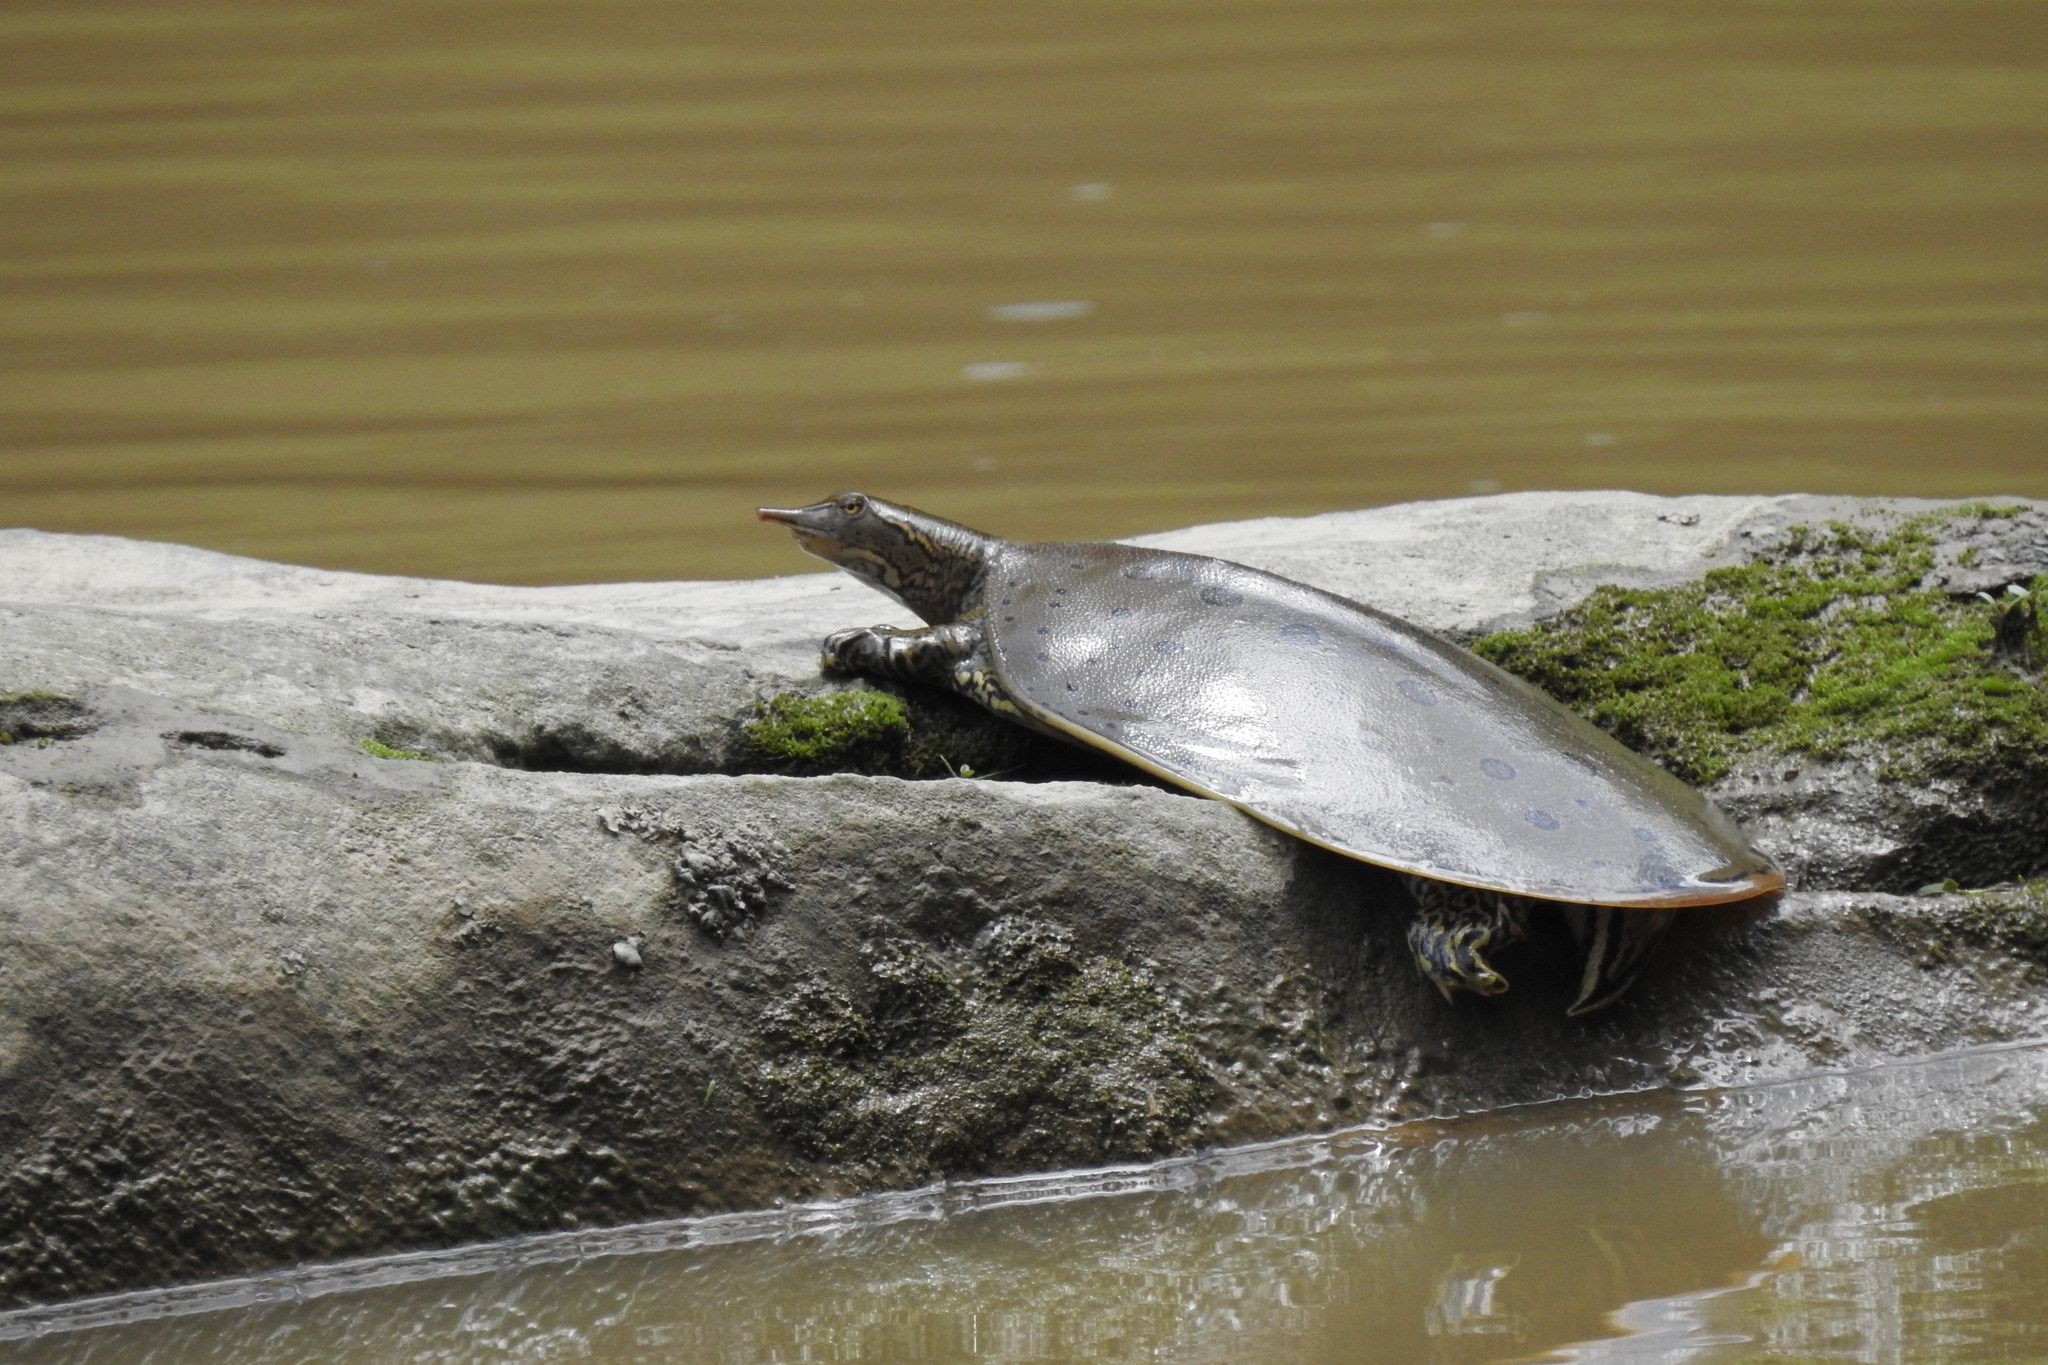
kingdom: Animalia
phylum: Chordata
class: Testudines
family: Trionychidae
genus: Apalone
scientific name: Apalone spinifera
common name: Spiny softshell turtle
